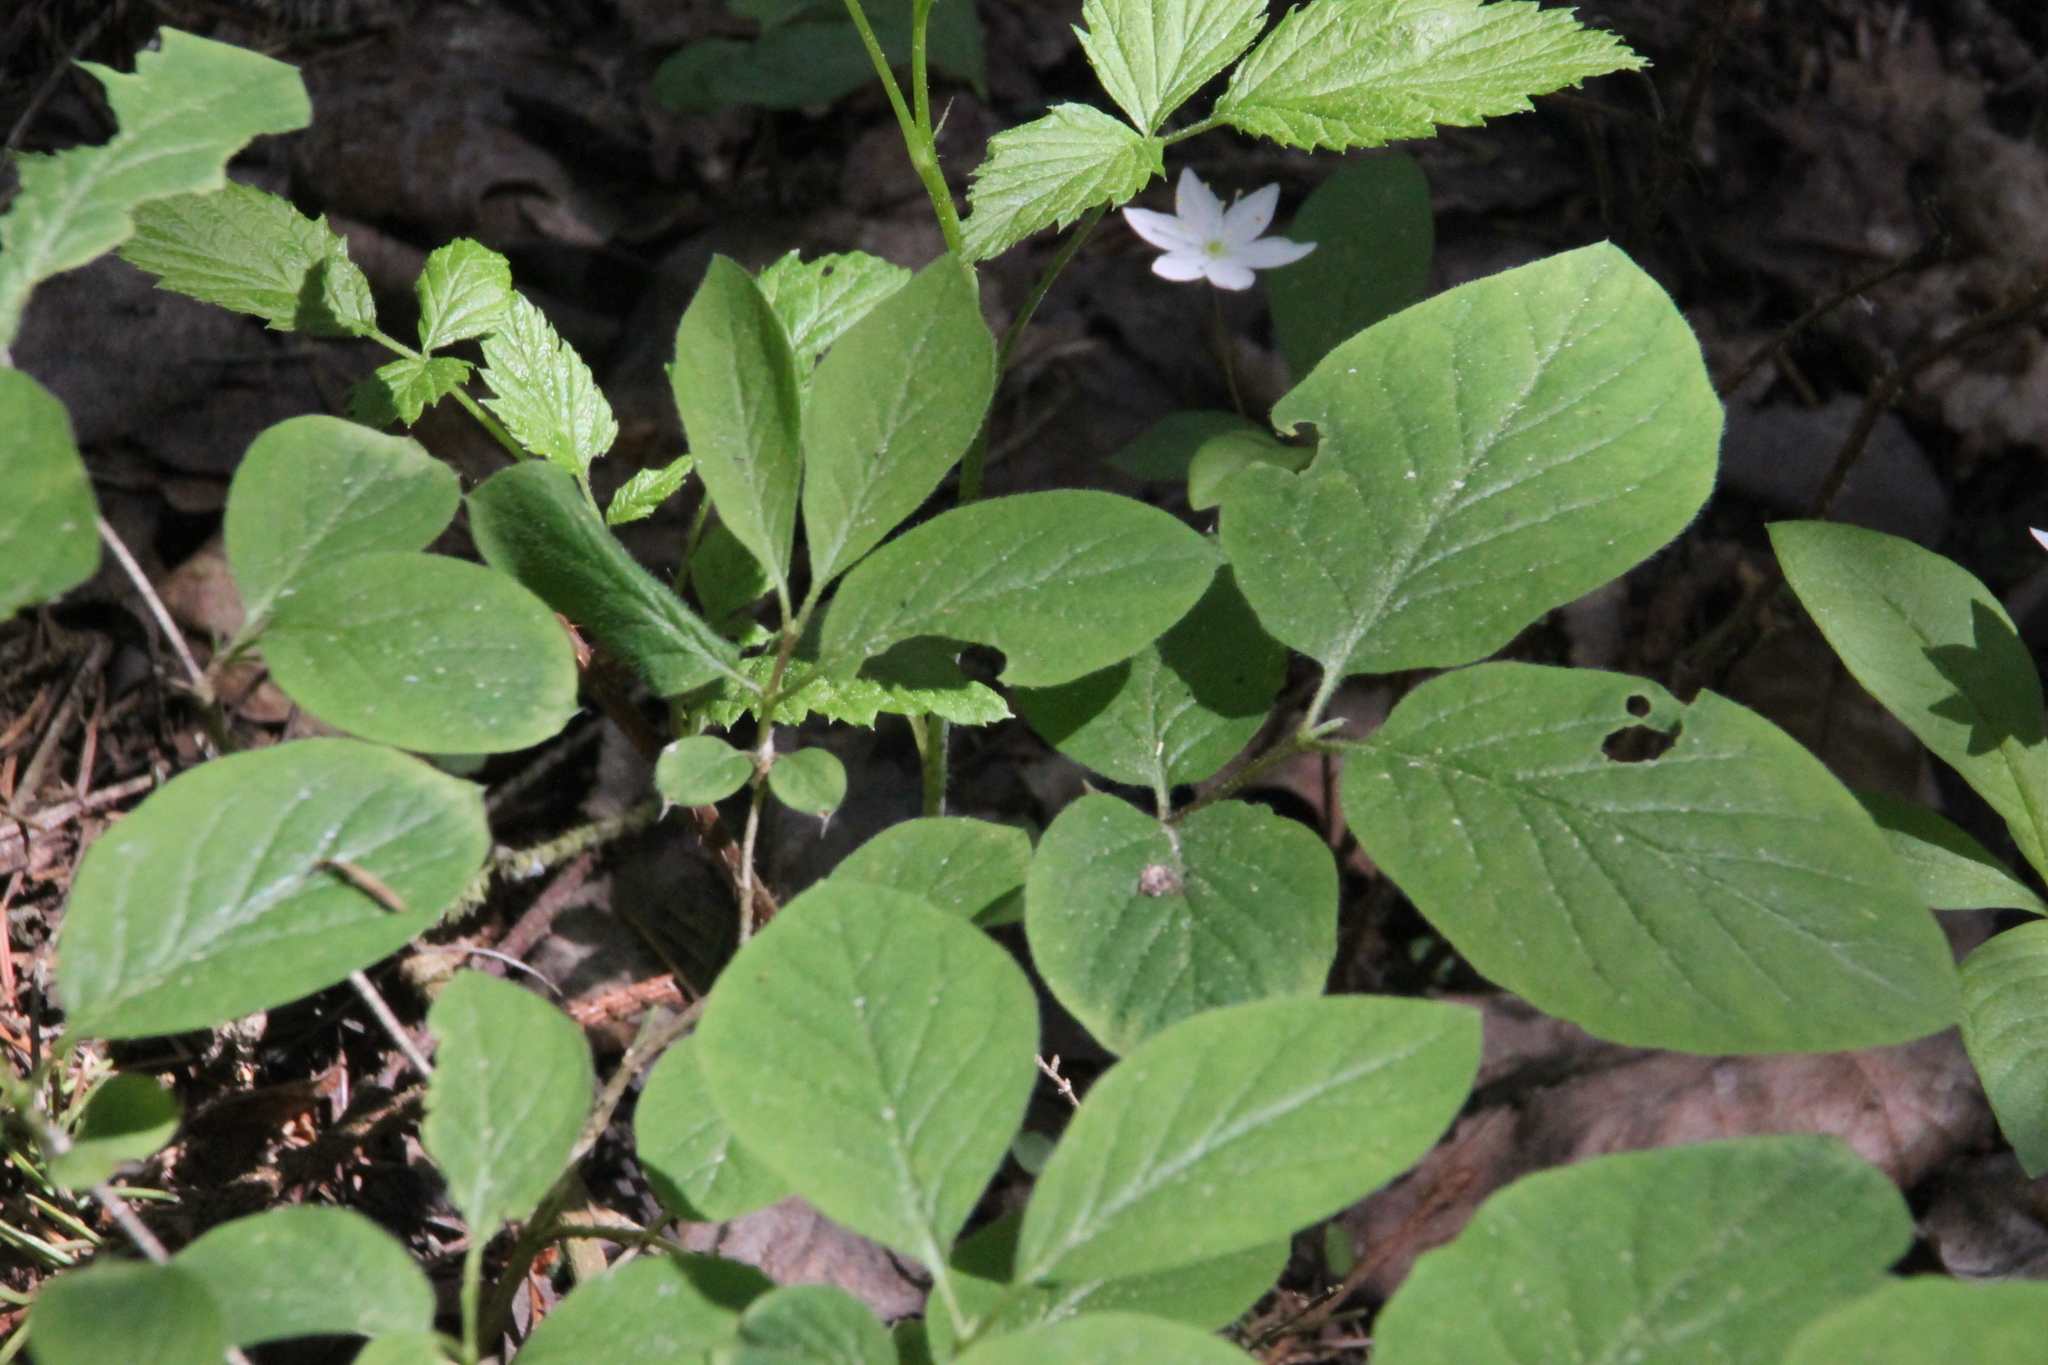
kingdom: Plantae
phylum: Tracheophyta
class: Magnoliopsida
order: Dipsacales
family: Caprifoliaceae
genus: Lonicera
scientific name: Lonicera xylosteum
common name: Fly honeysuckle
